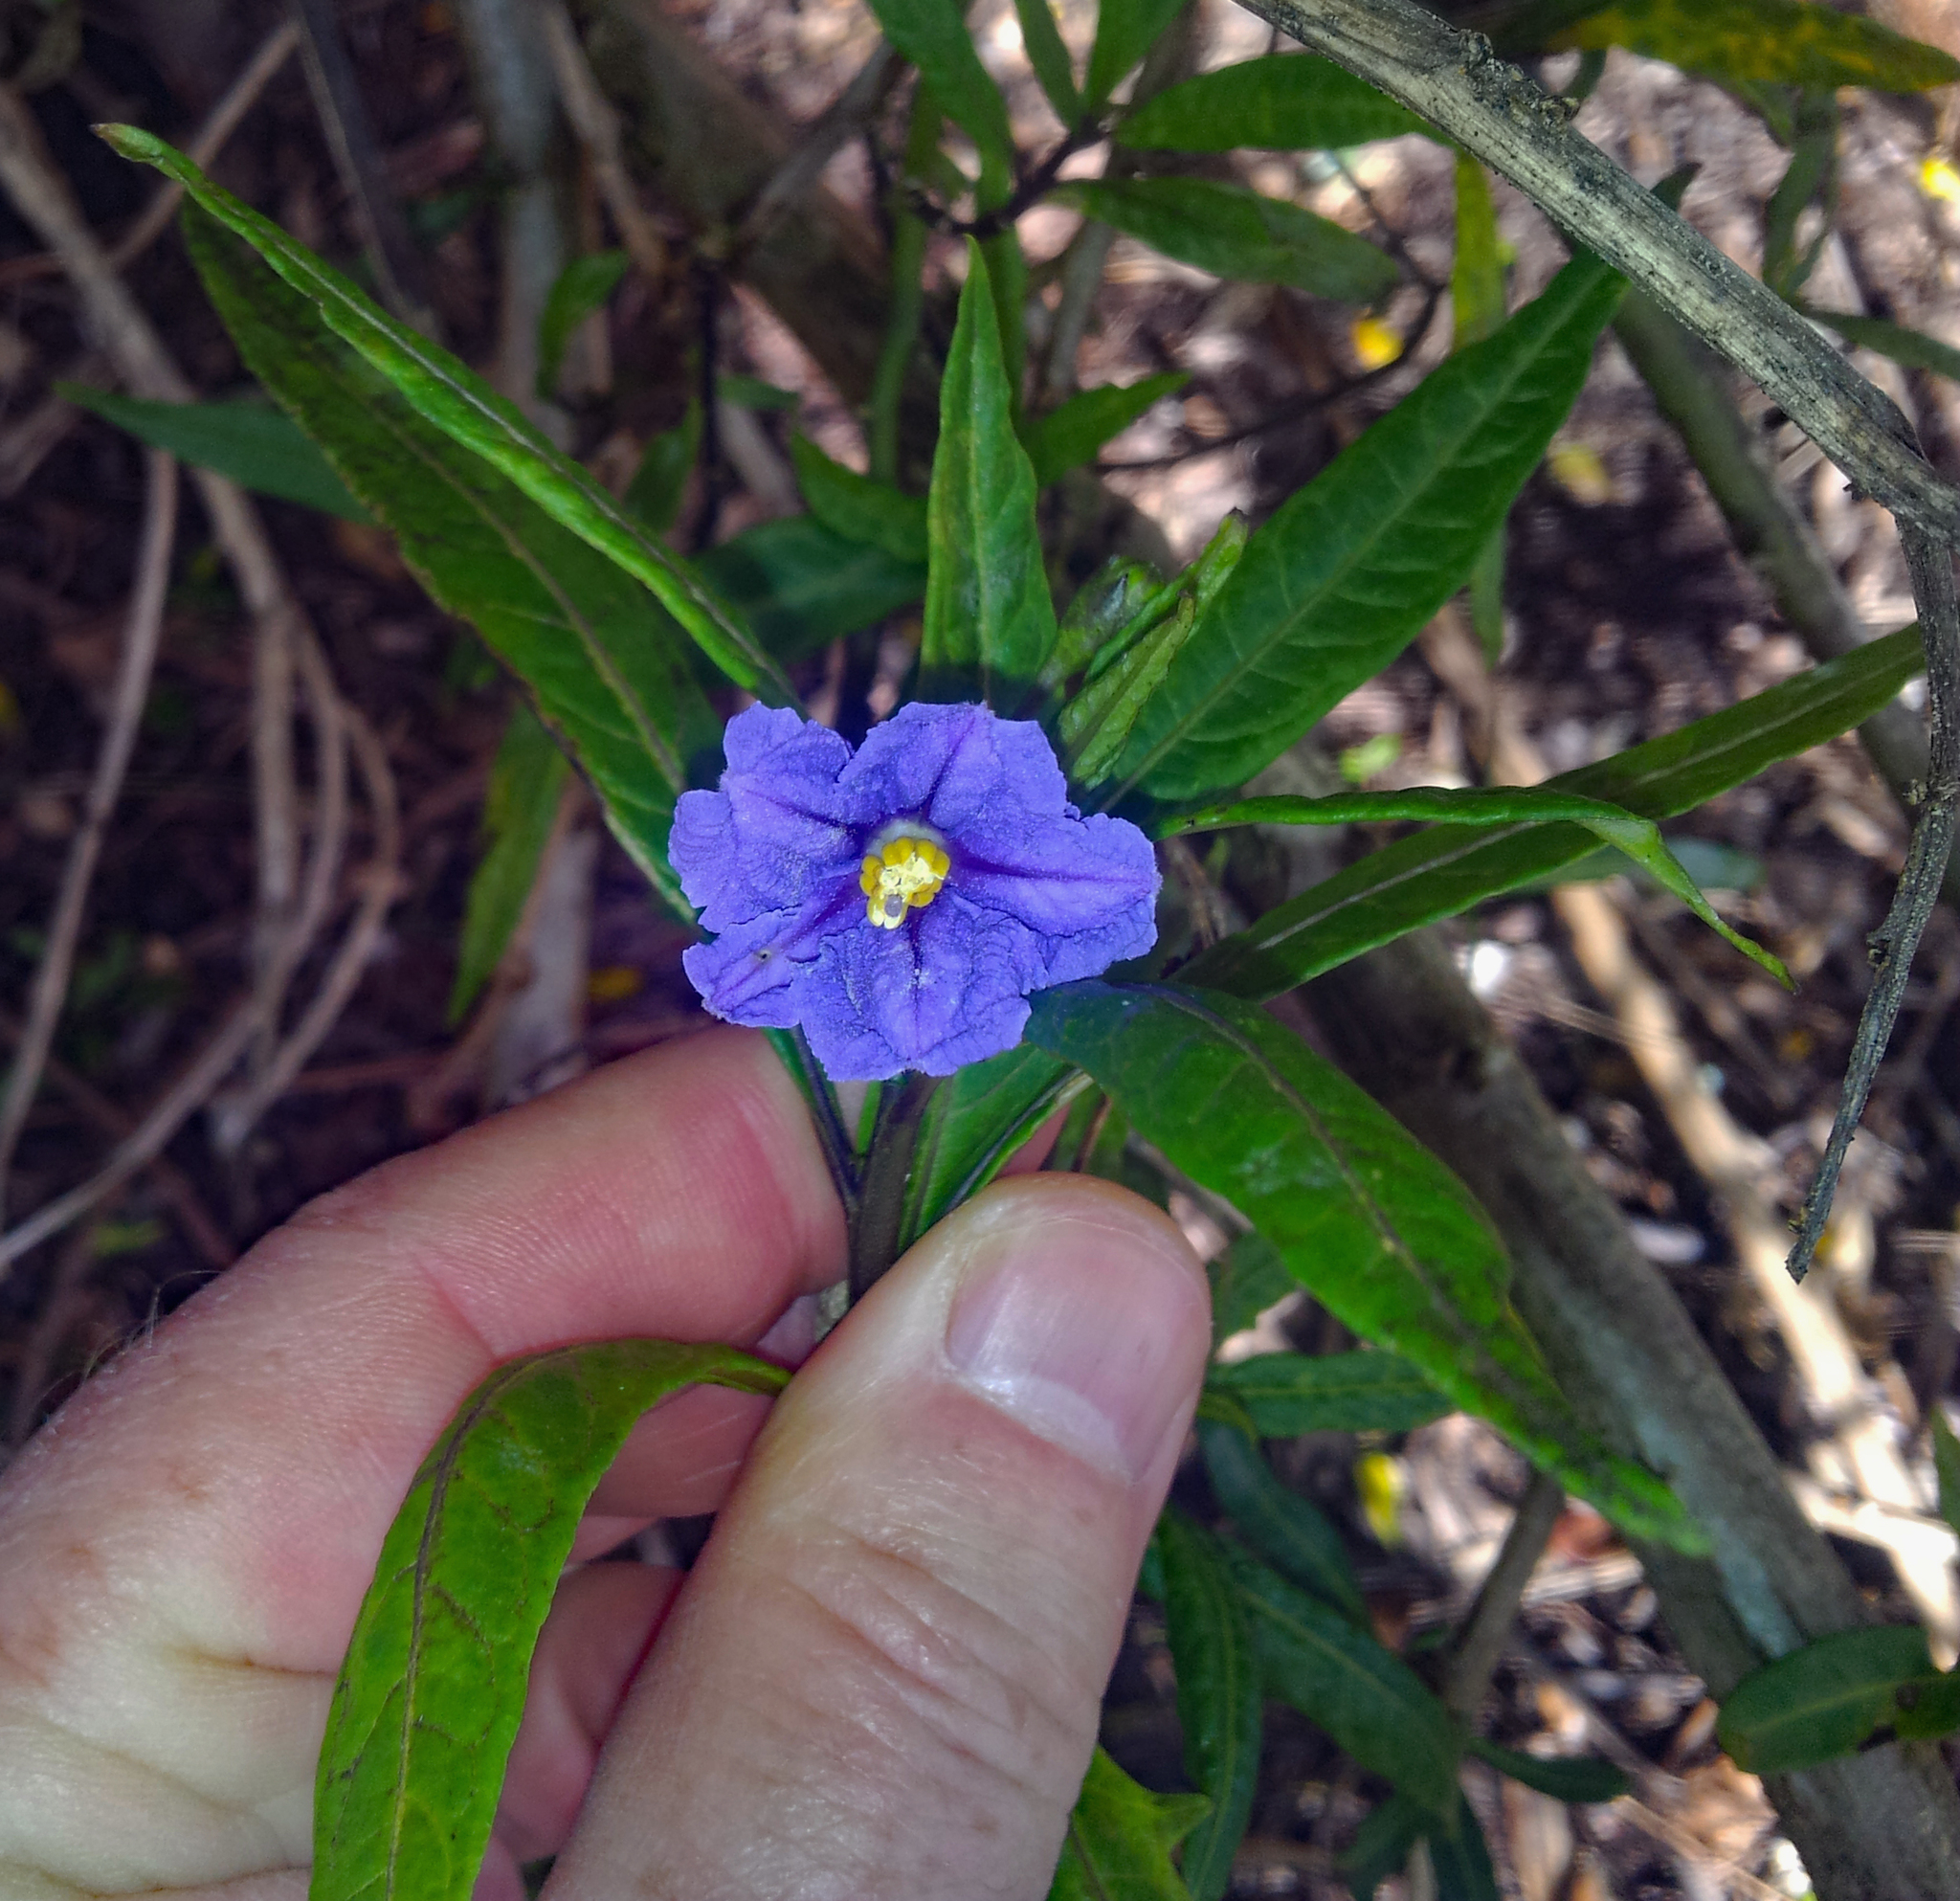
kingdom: Plantae
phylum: Tracheophyta
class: Magnoliopsida
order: Solanales
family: Solanaceae
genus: Solanum
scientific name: Solanum laciniatum
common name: Kangaroo-apple
